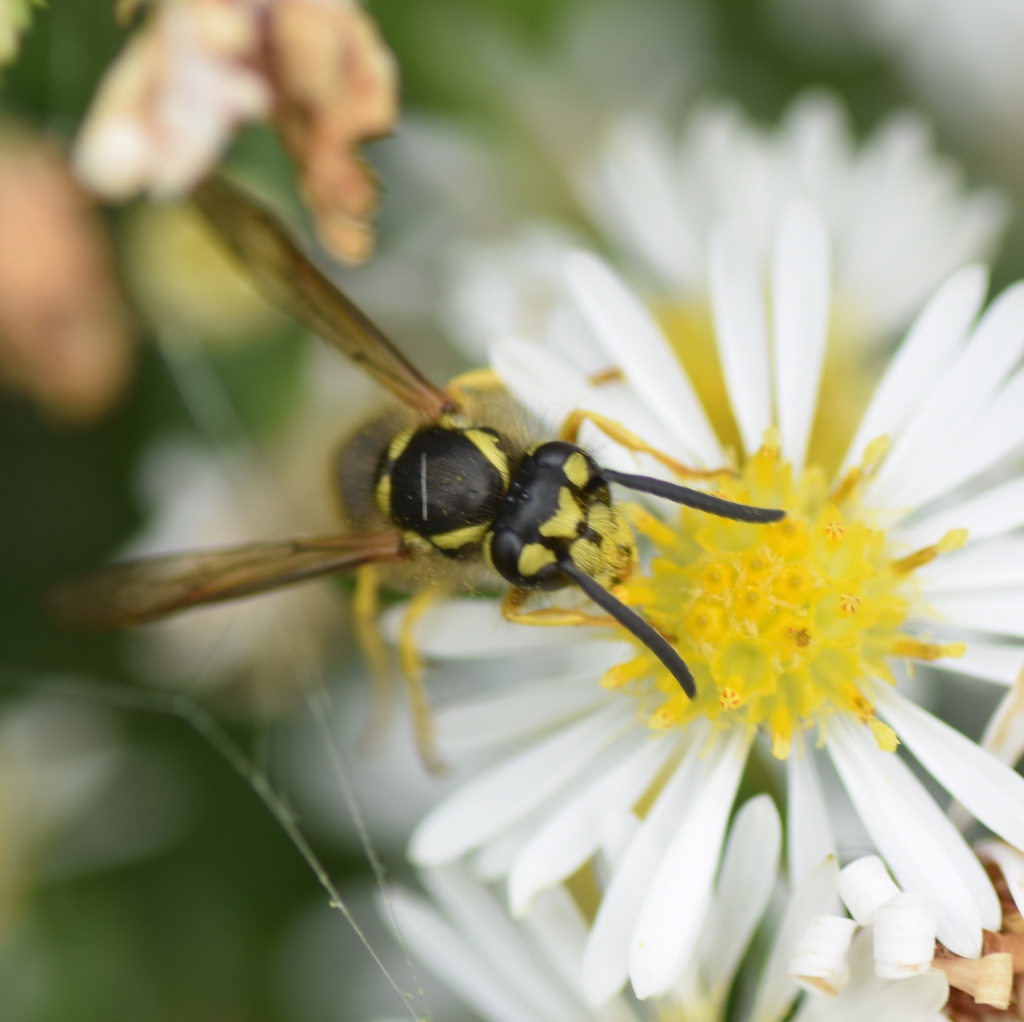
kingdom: Animalia
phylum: Arthropoda
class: Insecta
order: Hymenoptera
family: Vespidae
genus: Vespula
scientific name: Vespula maculifrons
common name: Eastern yellowjacket
